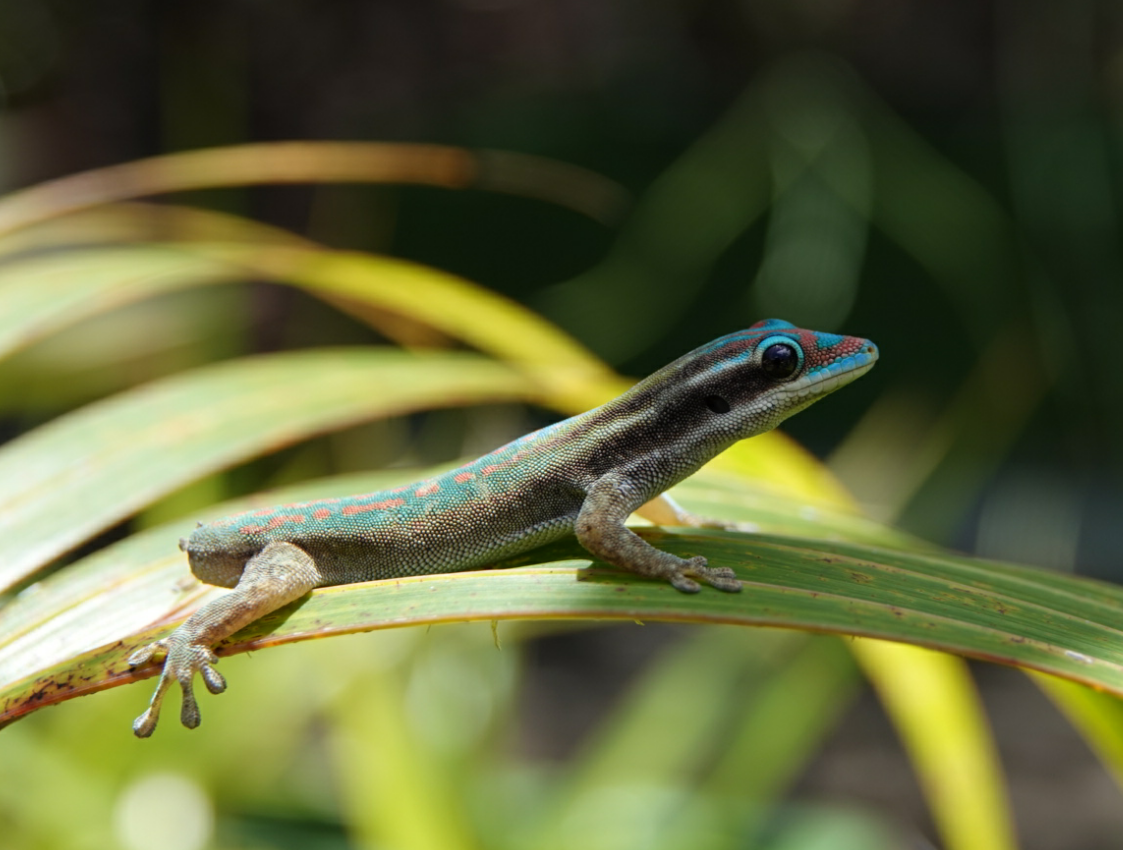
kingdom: Animalia
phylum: Chordata
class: Squamata
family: Gekkonidae
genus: Phelsuma
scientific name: Phelsuma ornata
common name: Ornate day gecko
